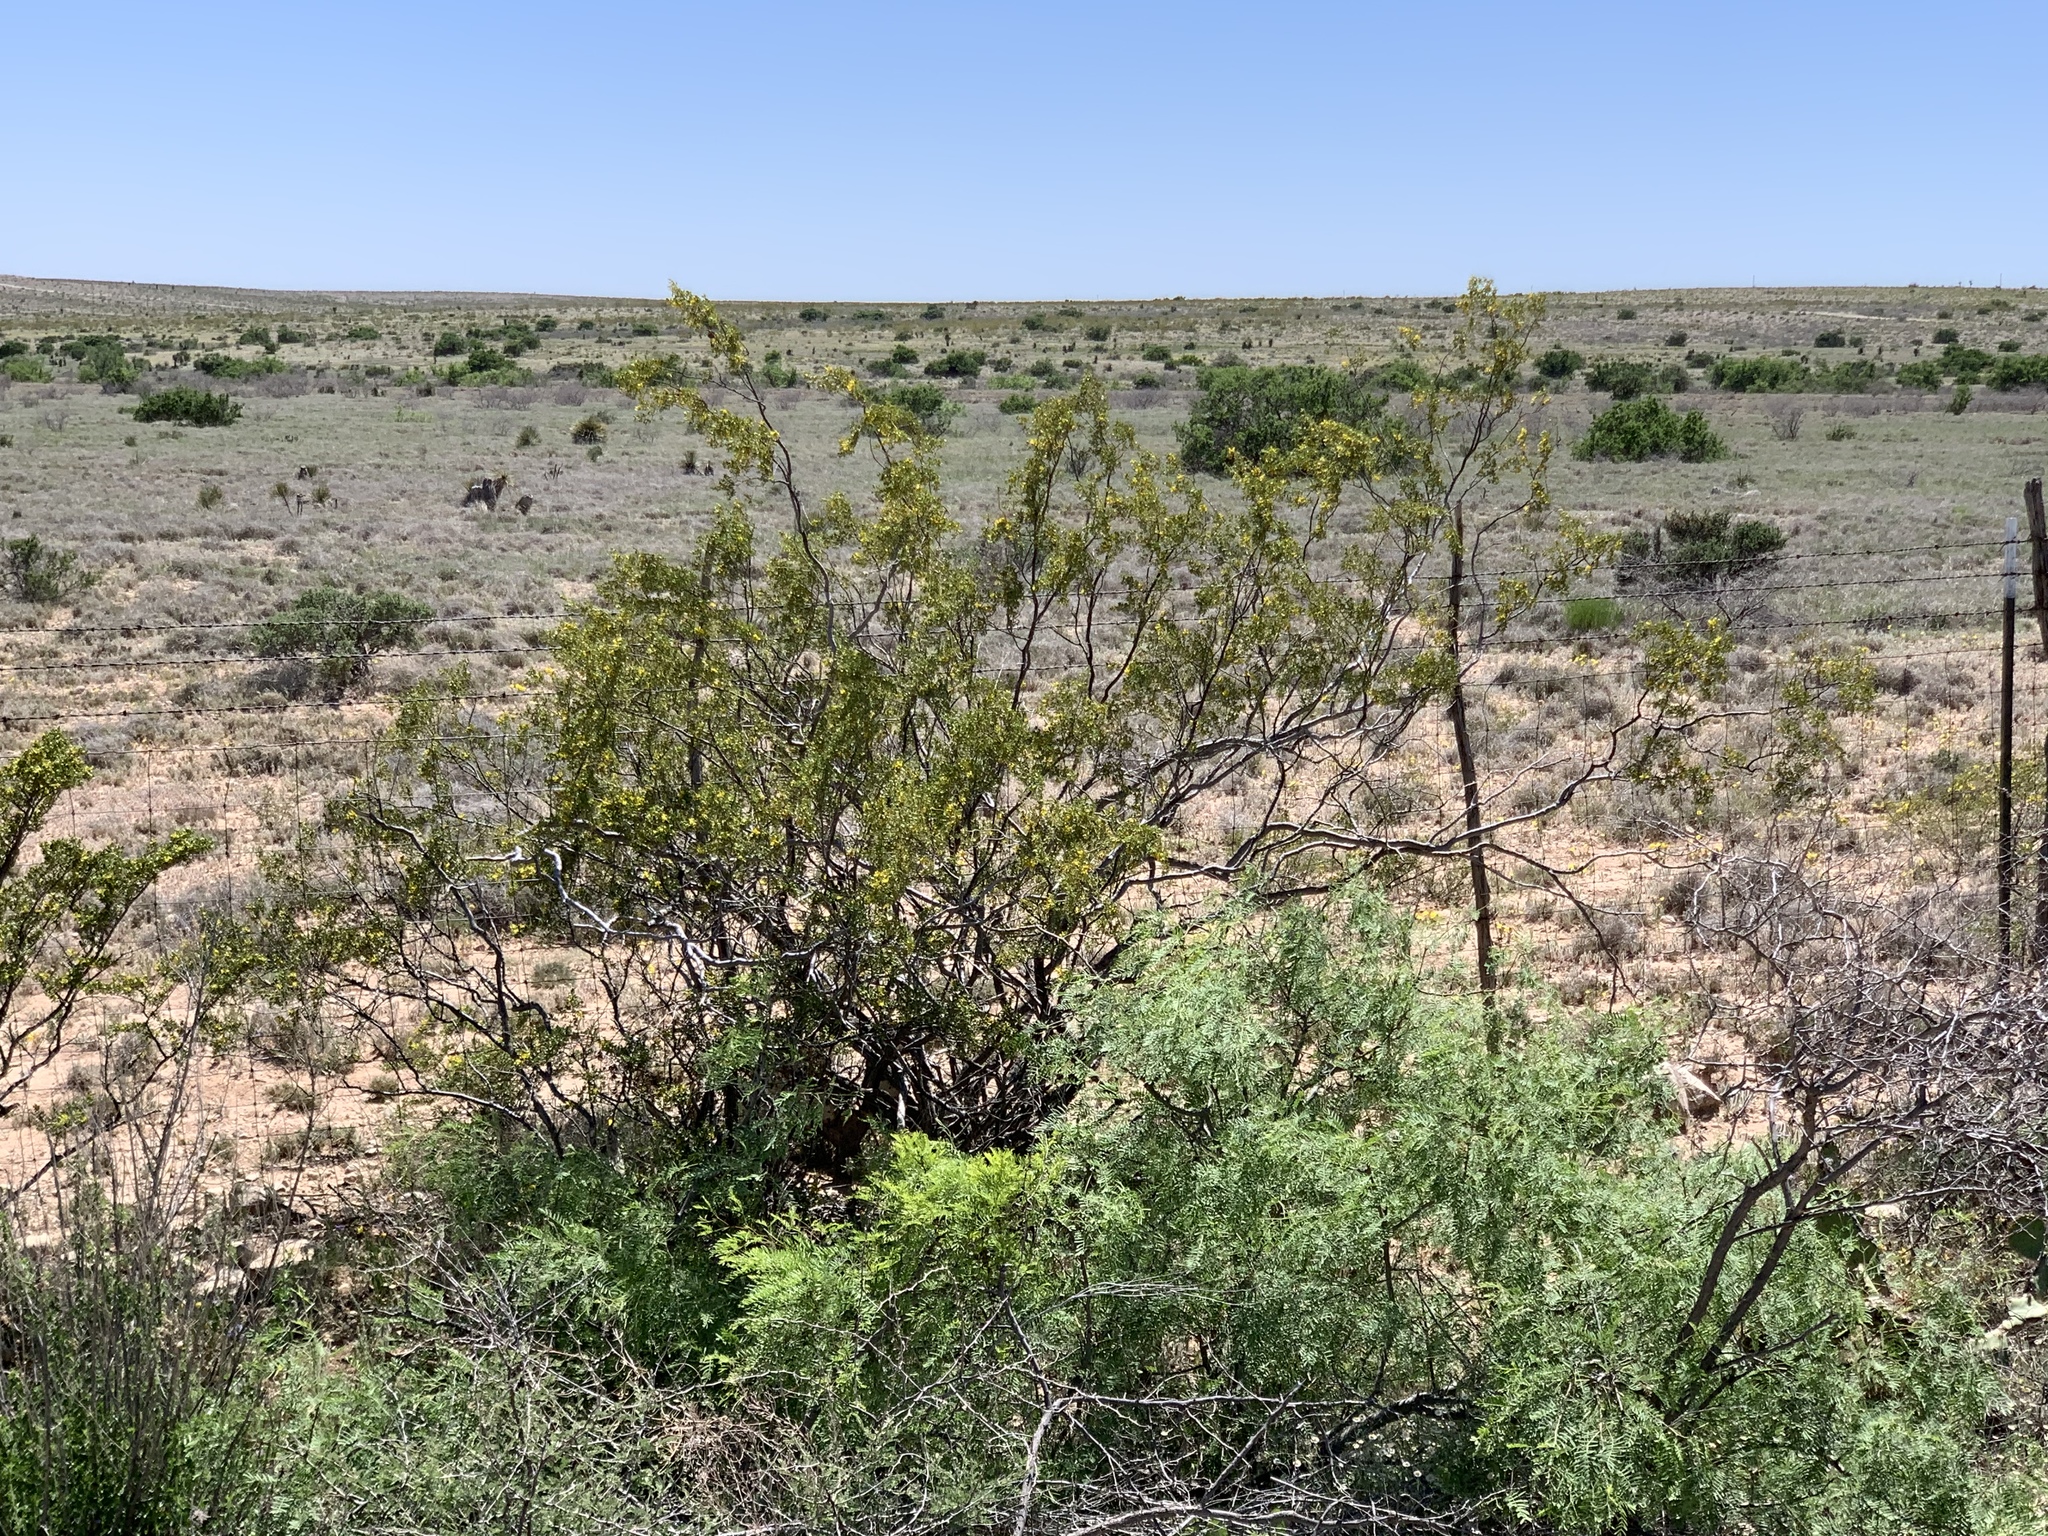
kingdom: Plantae
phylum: Tracheophyta
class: Magnoliopsida
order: Zygophyllales
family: Zygophyllaceae
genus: Larrea
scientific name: Larrea tridentata
